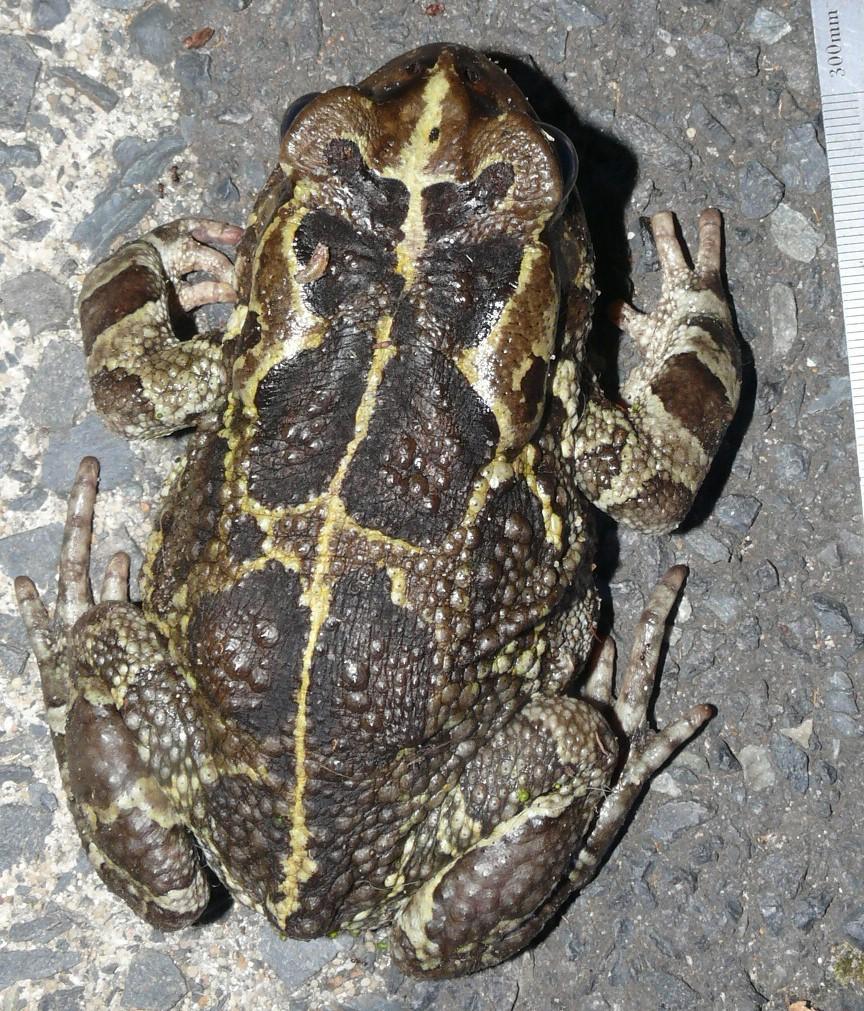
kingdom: Animalia
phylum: Chordata
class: Amphibia
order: Anura
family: Bufonidae
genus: Sclerophrys
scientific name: Sclerophrys pantherina
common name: Panther toad
